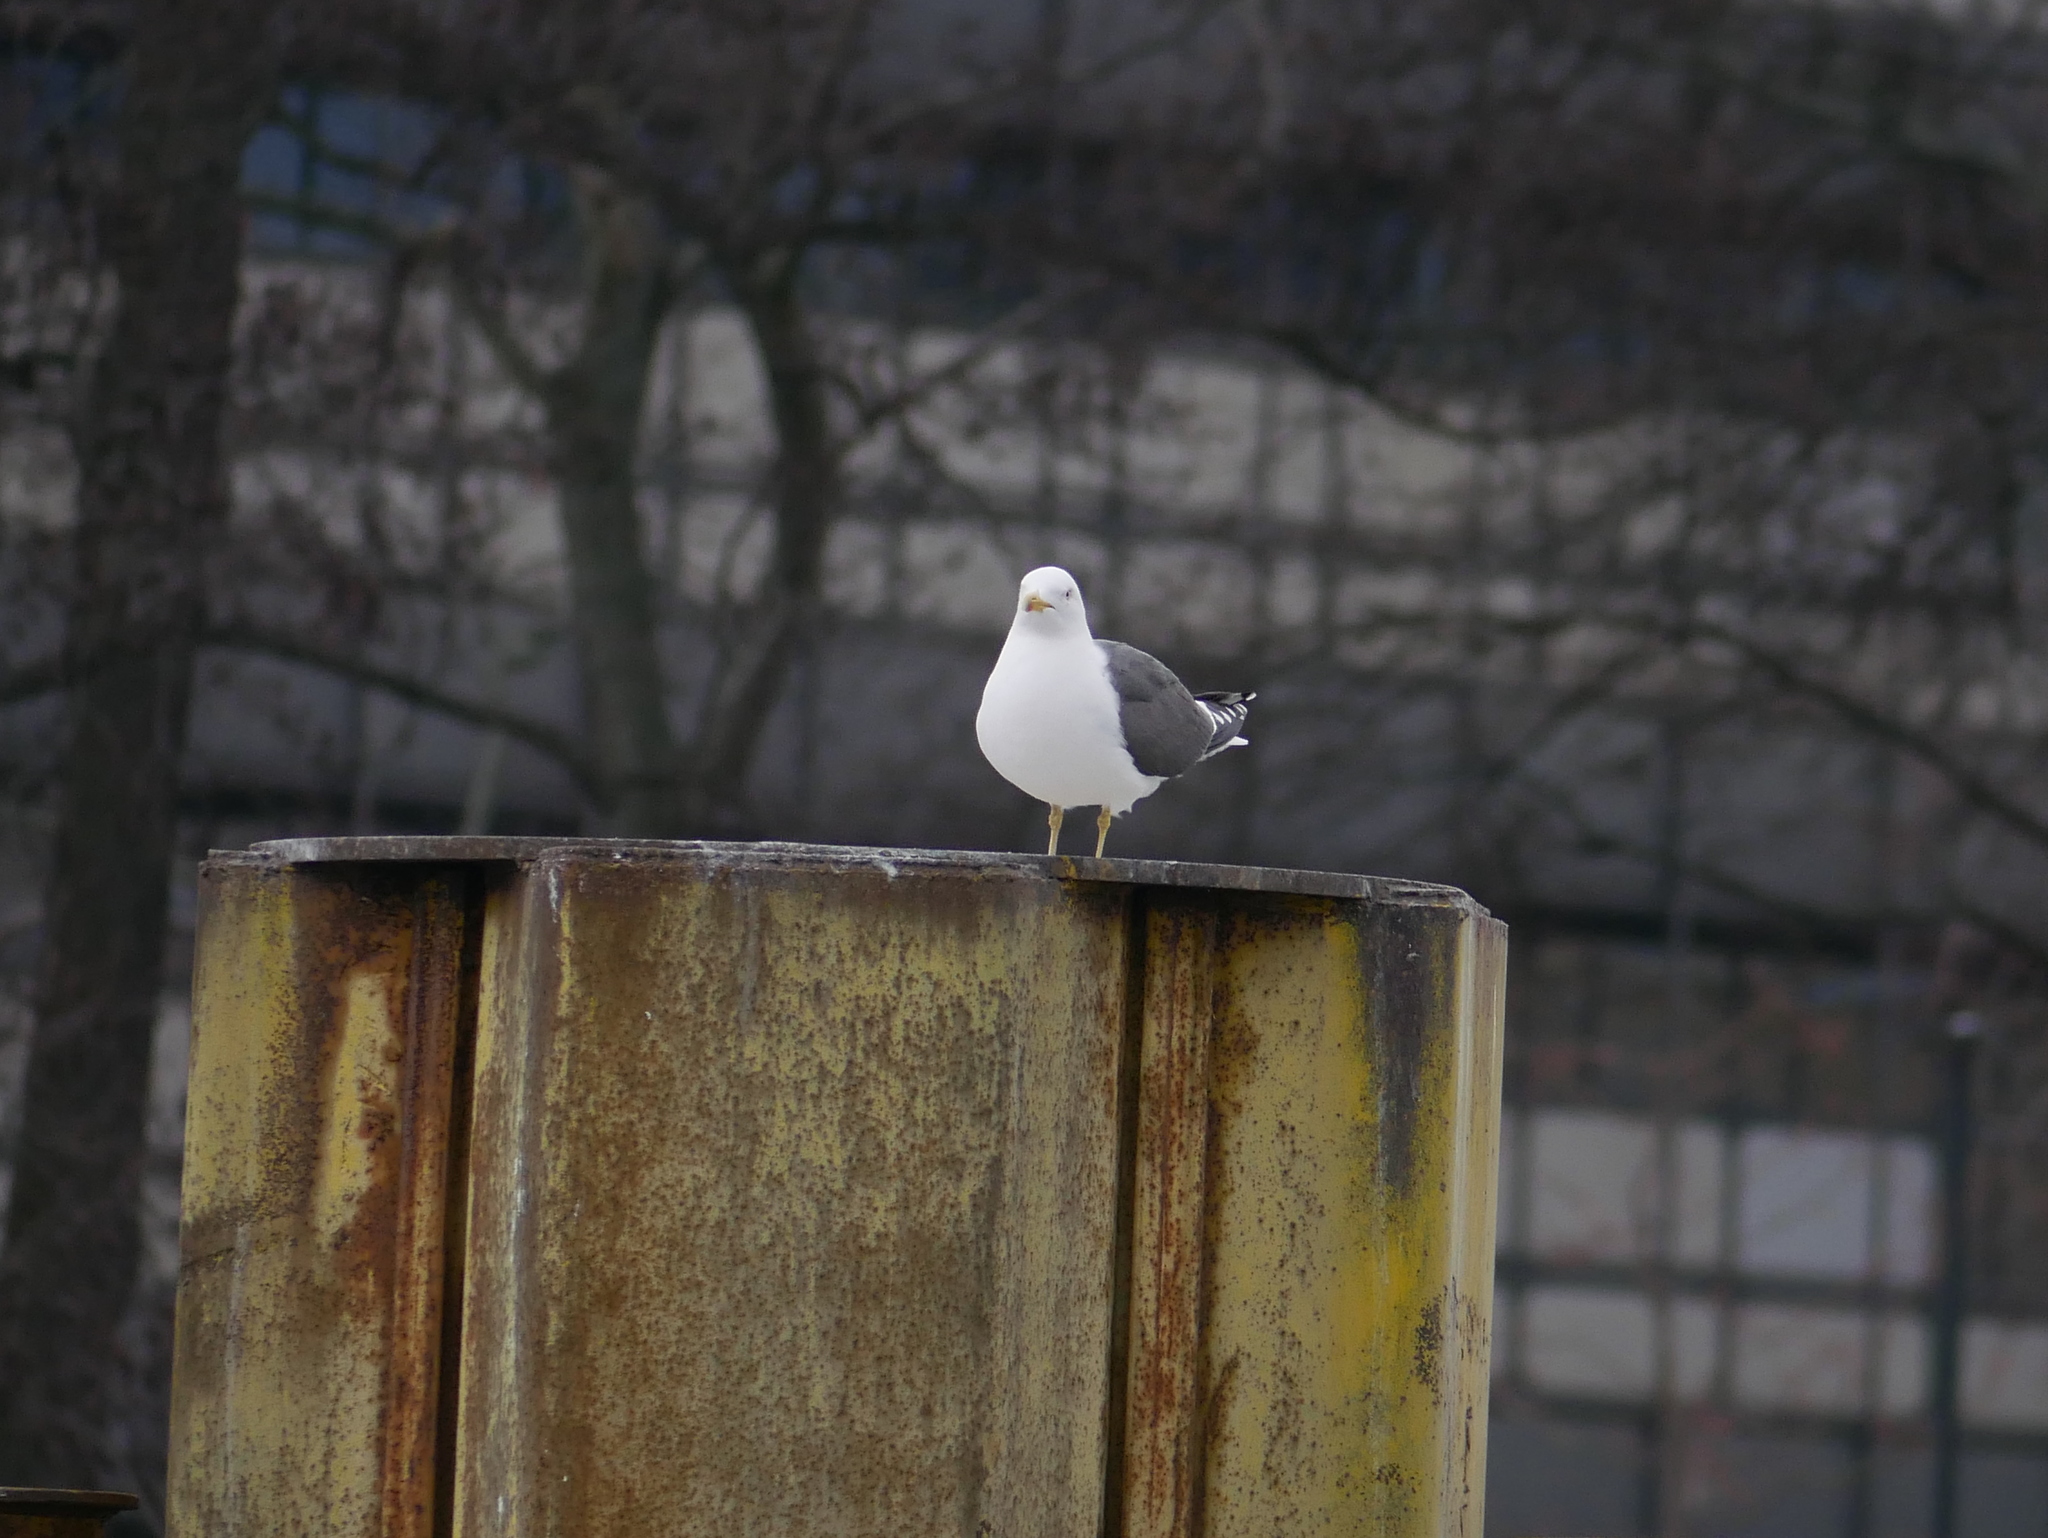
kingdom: Animalia
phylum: Chordata
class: Aves
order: Charadriiformes
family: Laridae
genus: Larus
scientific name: Larus fuscus
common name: Lesser black-backed gull
